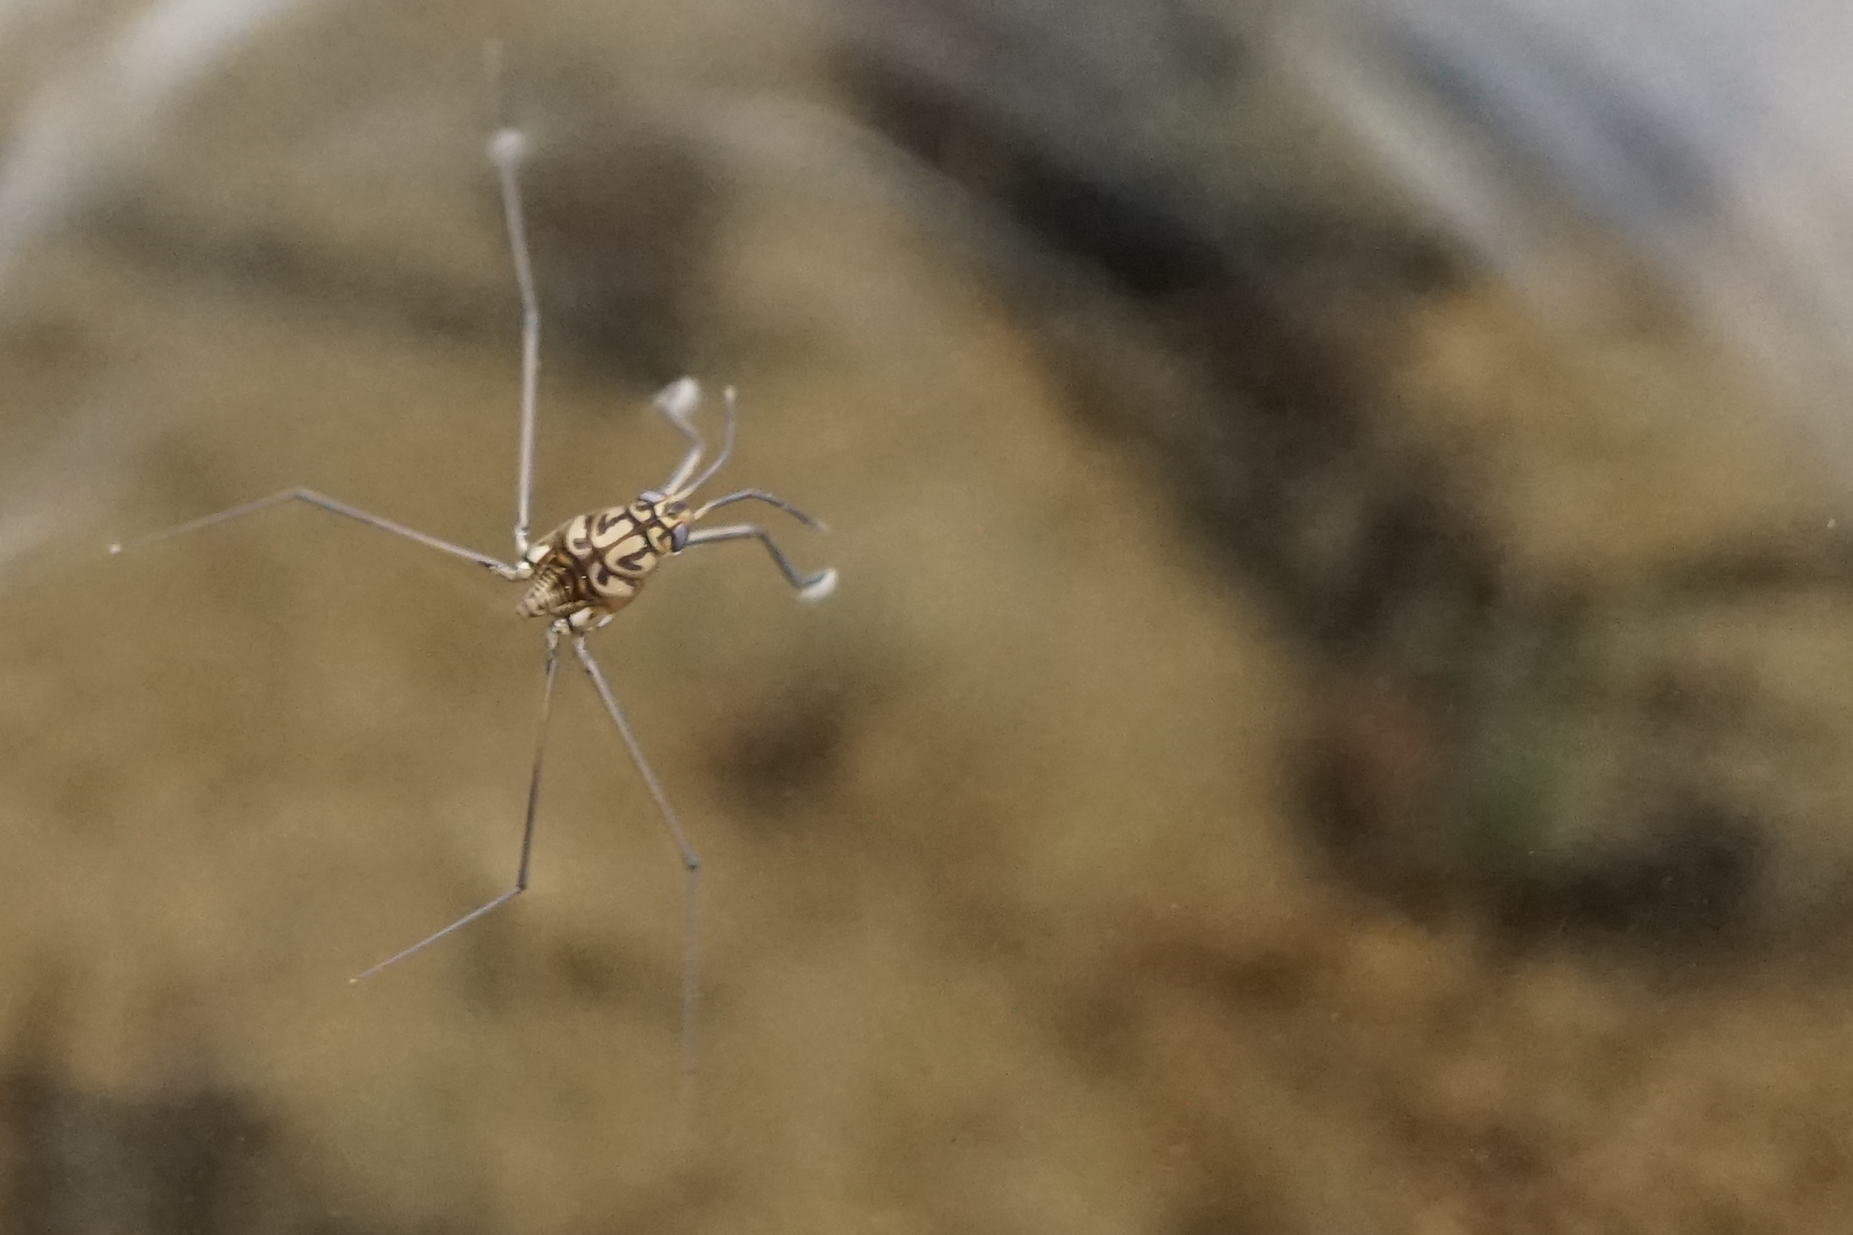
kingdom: Animalia
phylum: Arthropoda
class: Insecta
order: Hemiptera
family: Gerridae
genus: Metrocoris
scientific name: Metrocoris histrio
